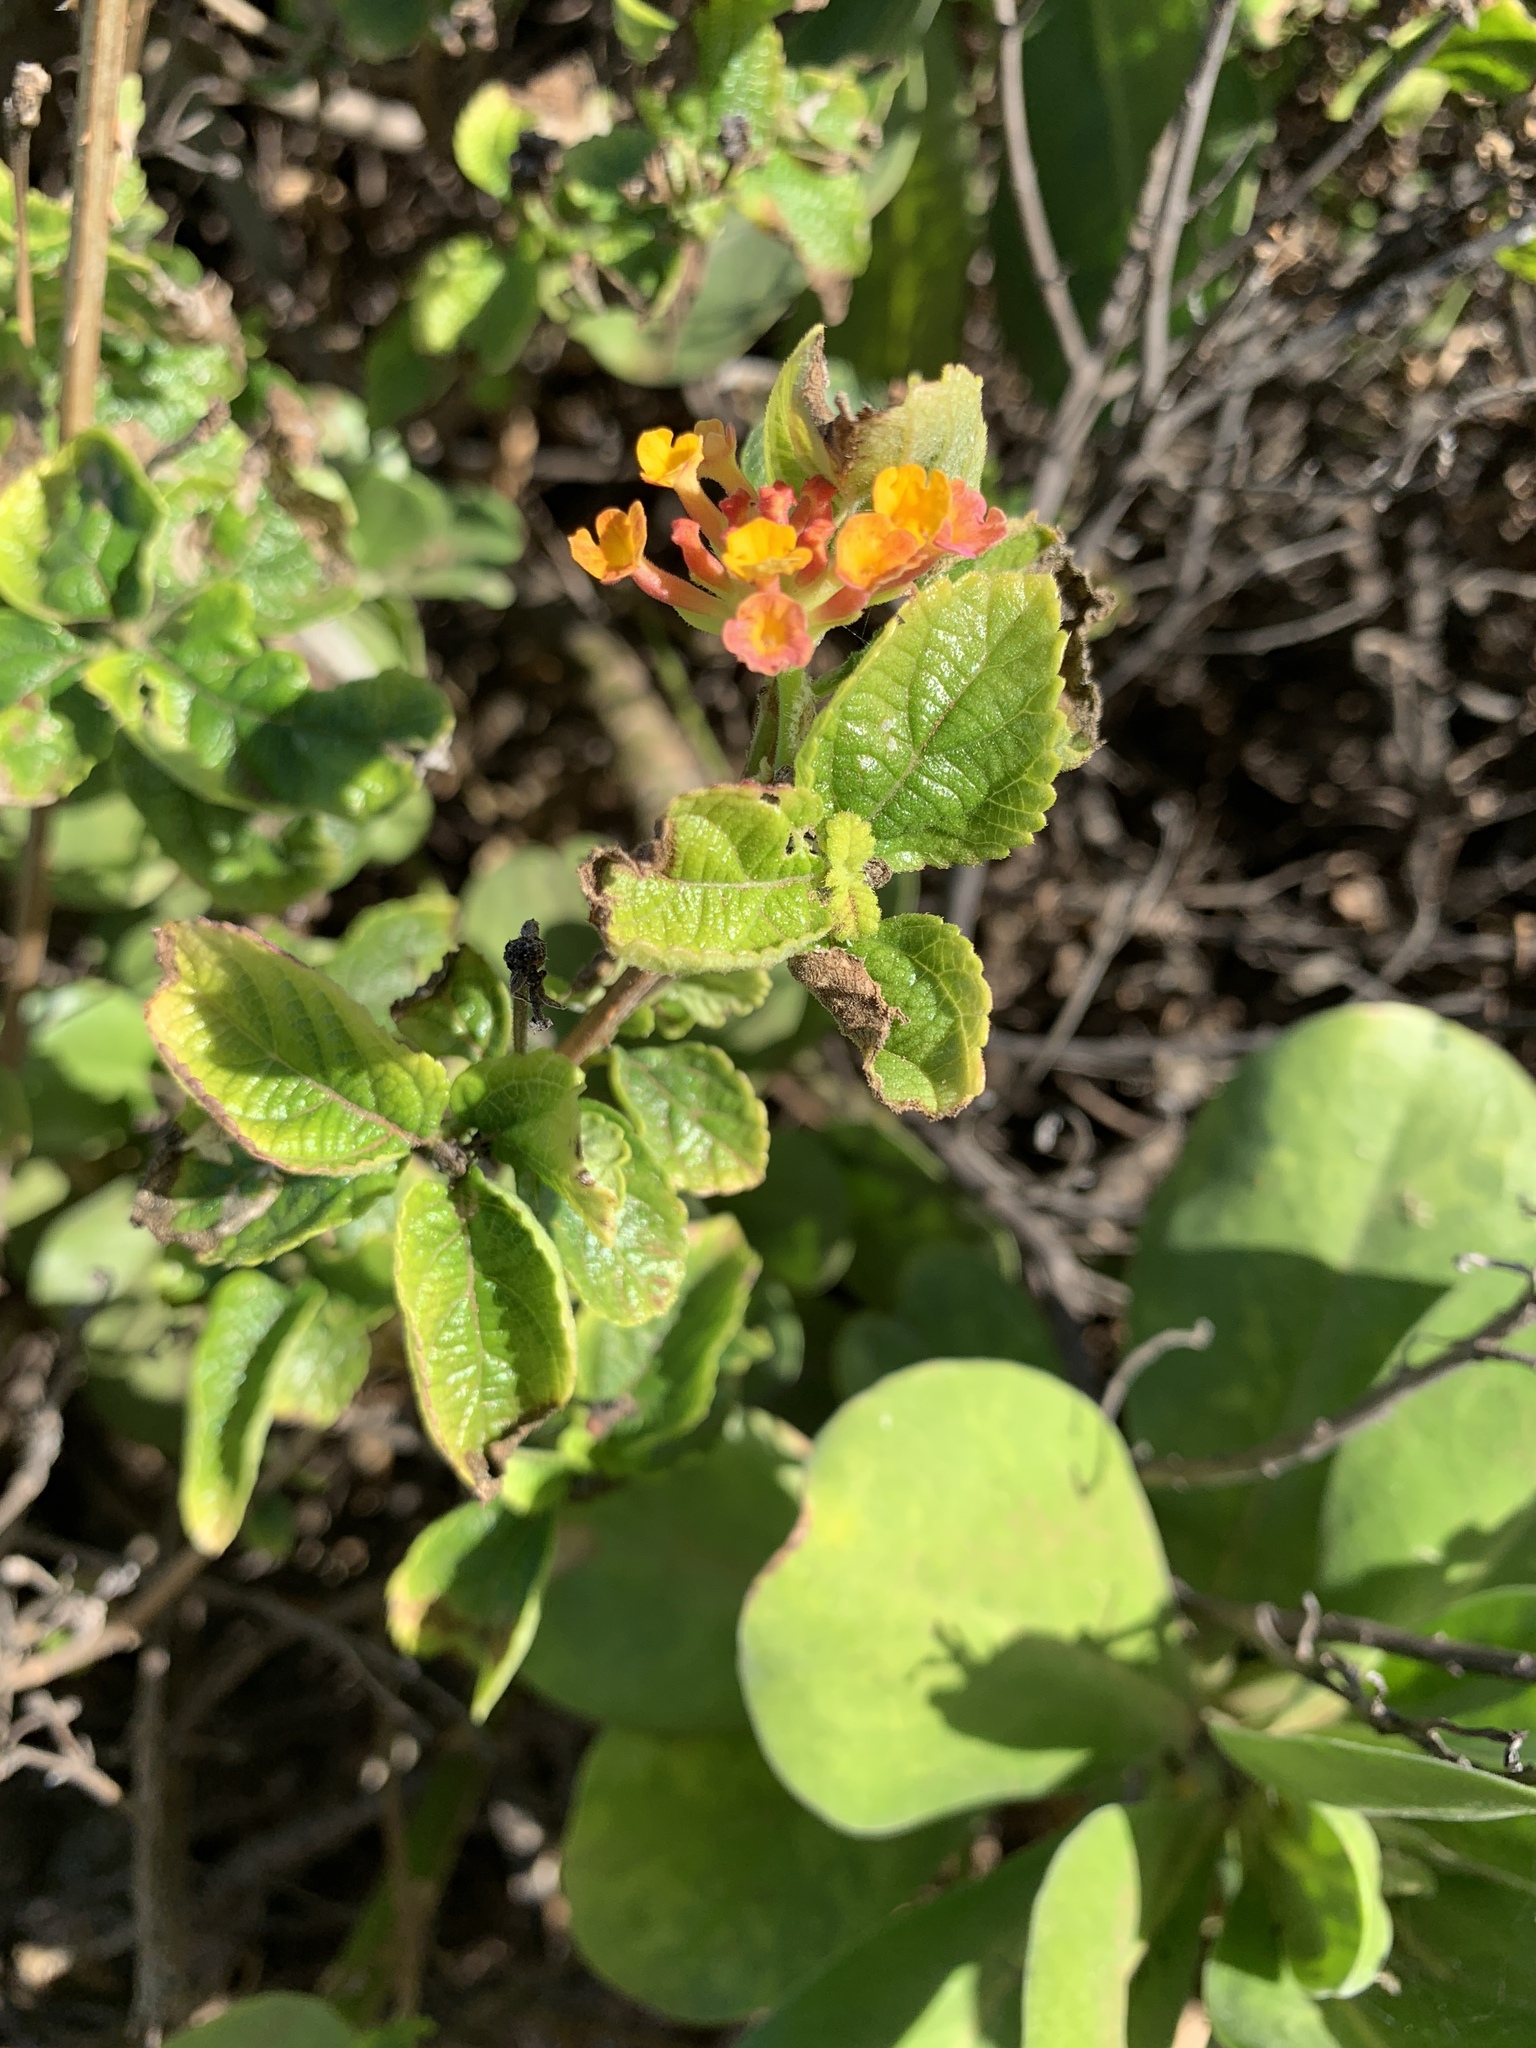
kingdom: Plantae
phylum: Tracheophyta
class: Magnoliopsida
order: Lamiales
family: Verbenaceae
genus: Lantana
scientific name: Lantana camara
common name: Lantana
